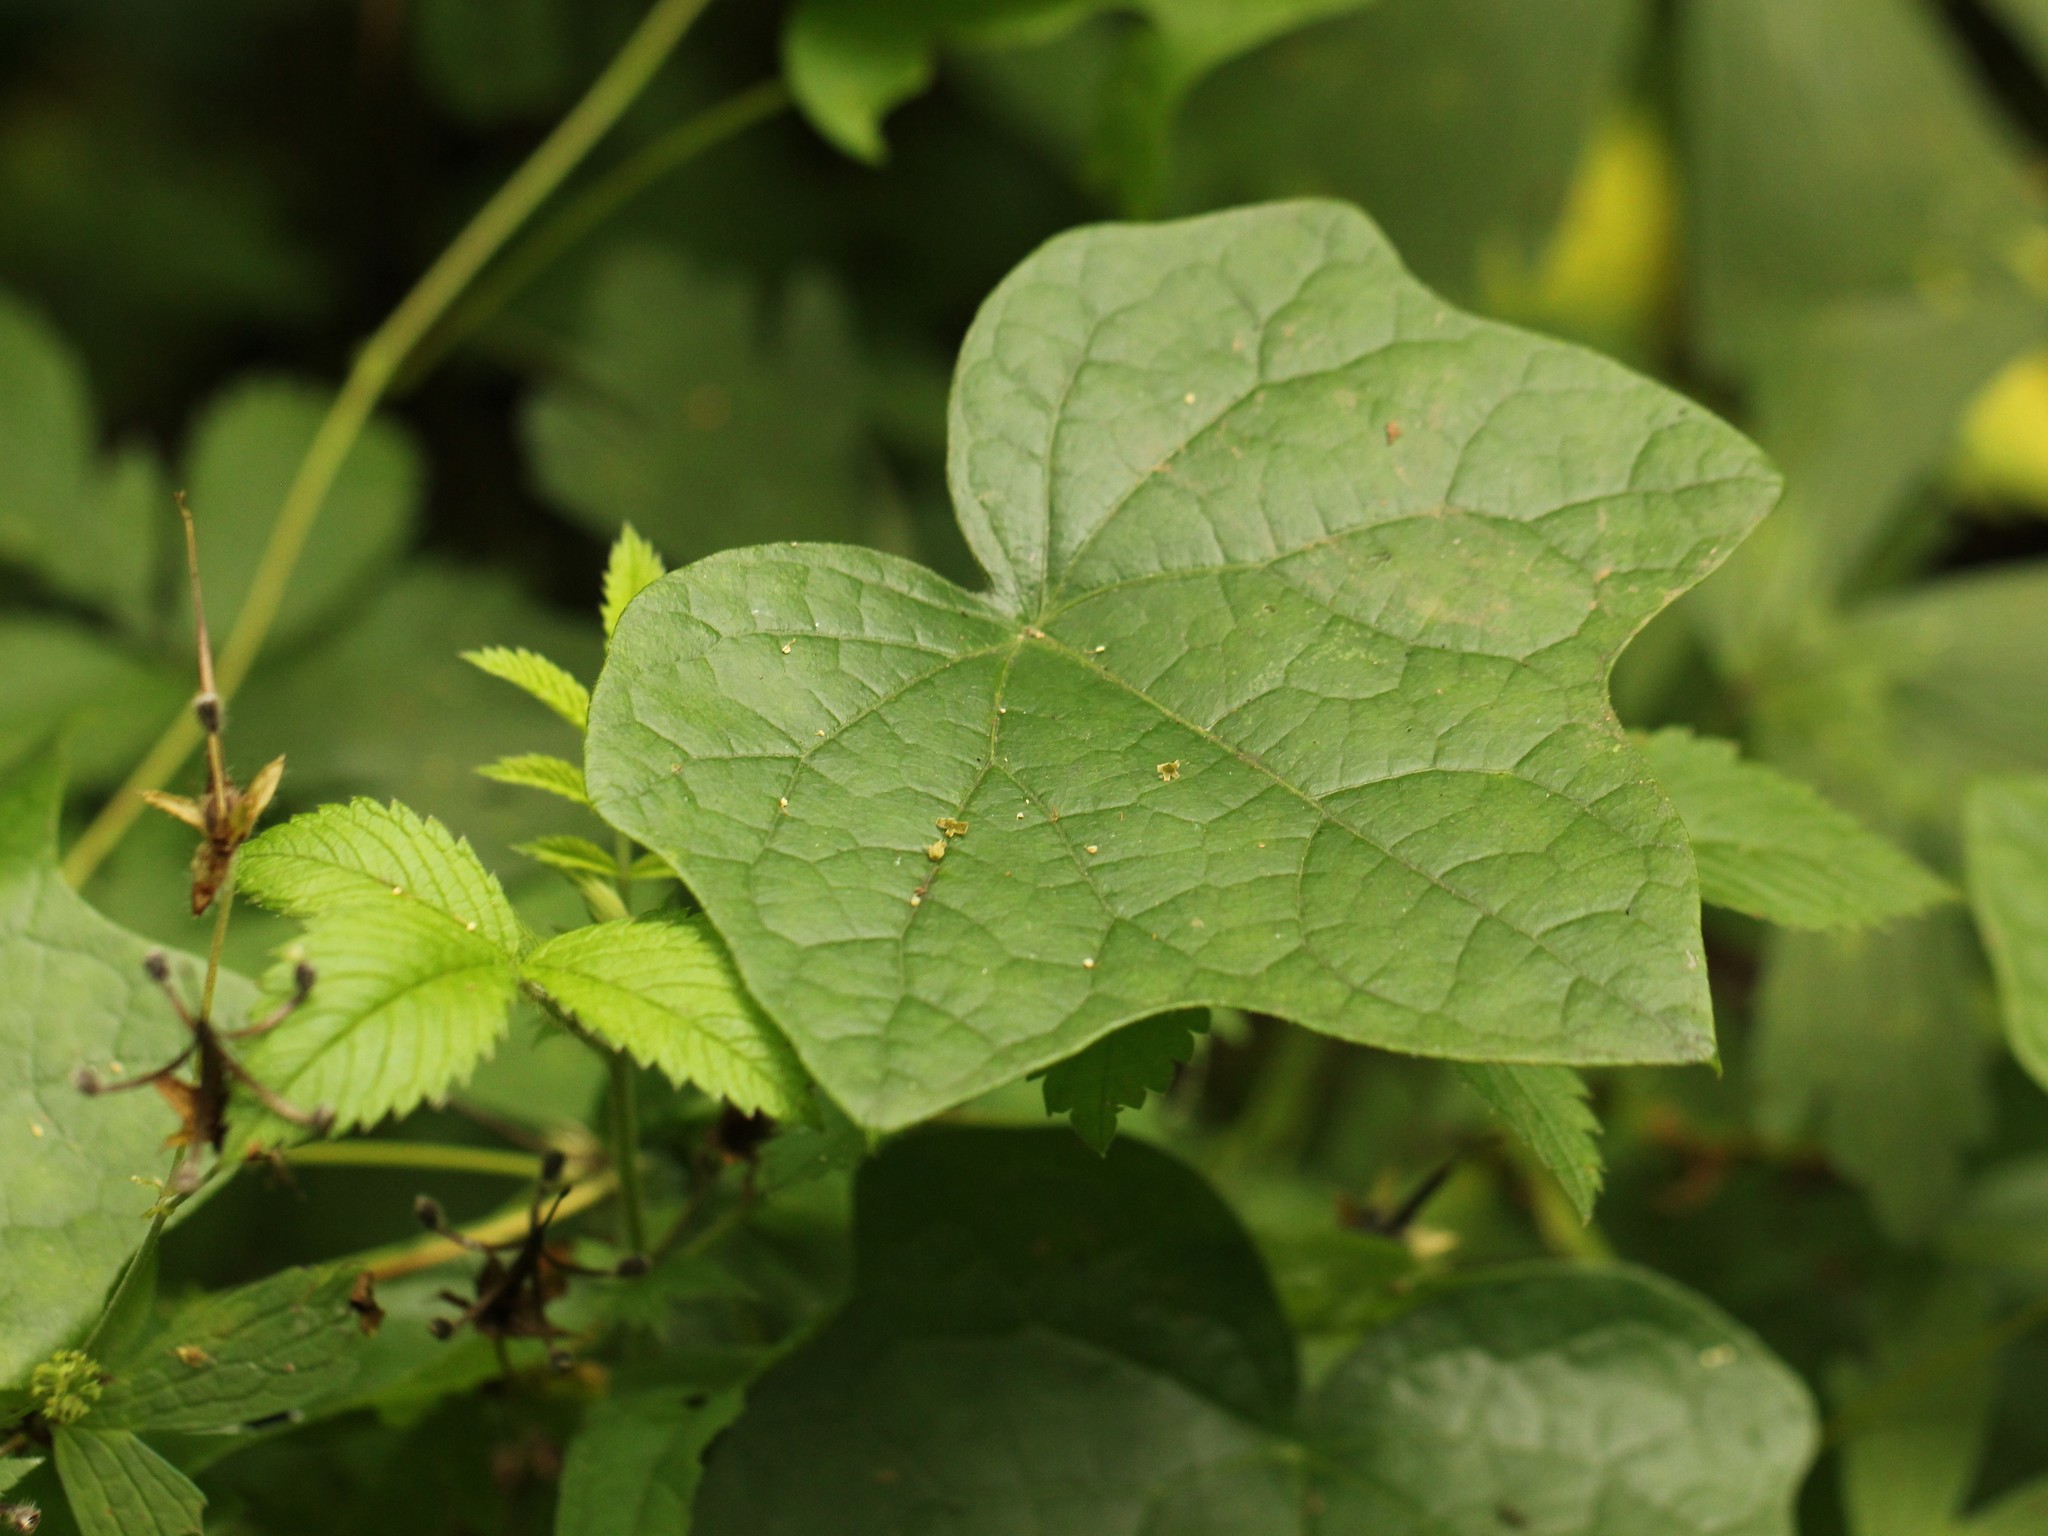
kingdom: Plantae
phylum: Tracheophyta
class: Magnoliopsida
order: Ranunculales
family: Menispermaceae
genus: Menispermum
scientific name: Menispermum canadense
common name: Moonseed
